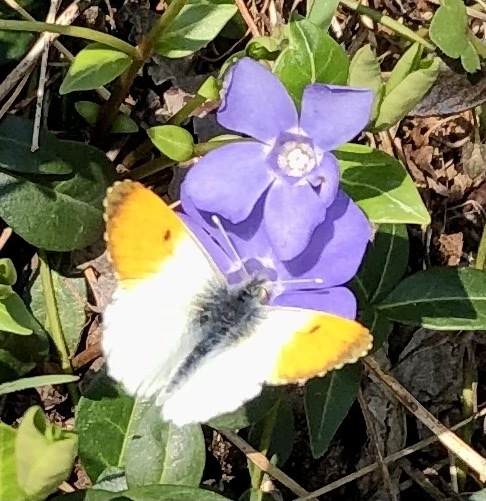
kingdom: Animalia
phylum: Arthropoda
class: Insecta
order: Lepidoptera
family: Pieridae
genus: Anthocharis
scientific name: Anthocharis cardamines
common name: Orange-tip
